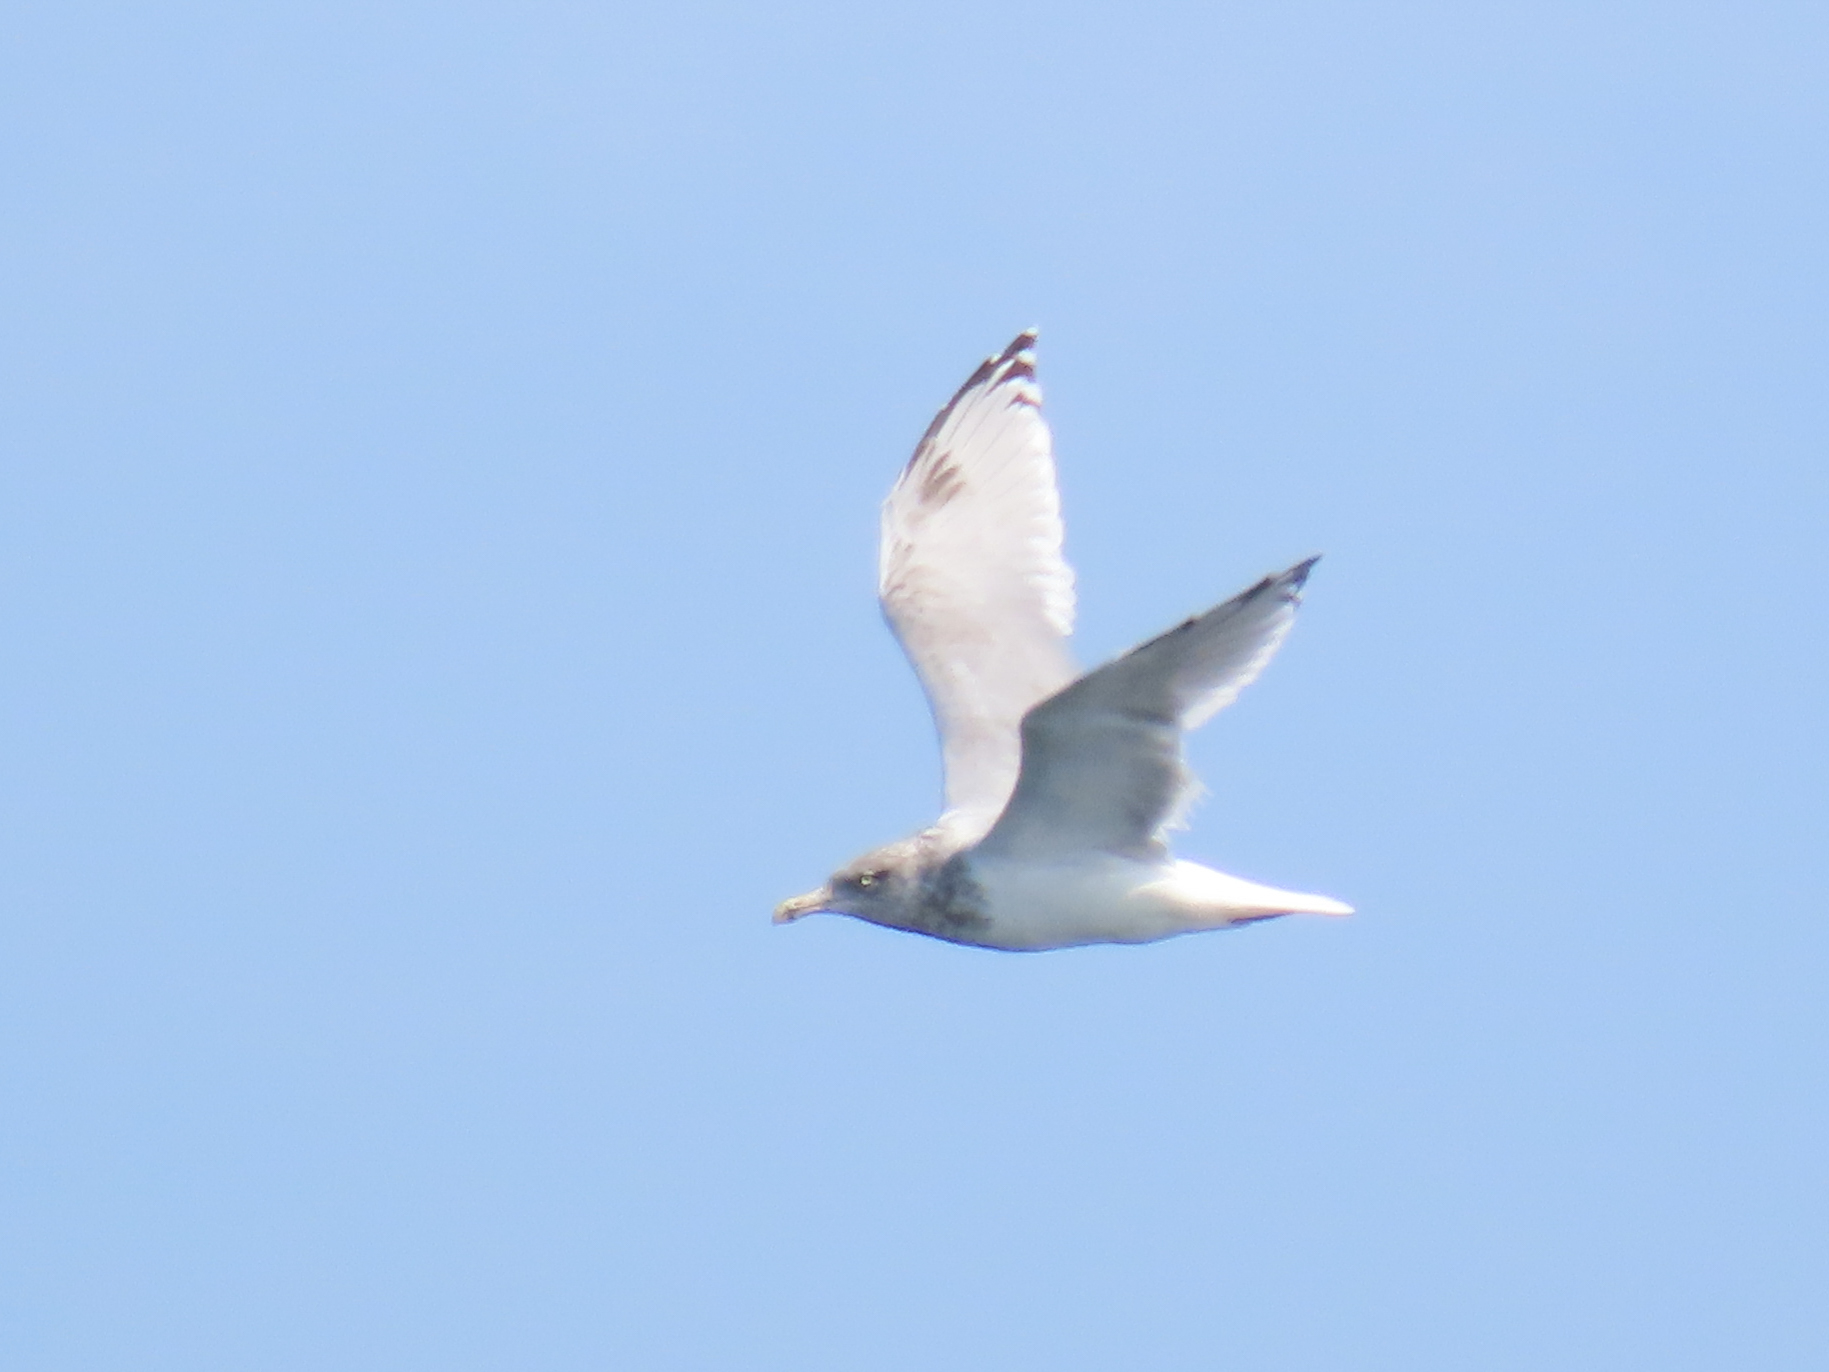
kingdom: Animalia
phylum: Chordata
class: Aves
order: Charadriiformes
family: Laridae
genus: Larus
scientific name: Larus argentatus
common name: Herring gull
